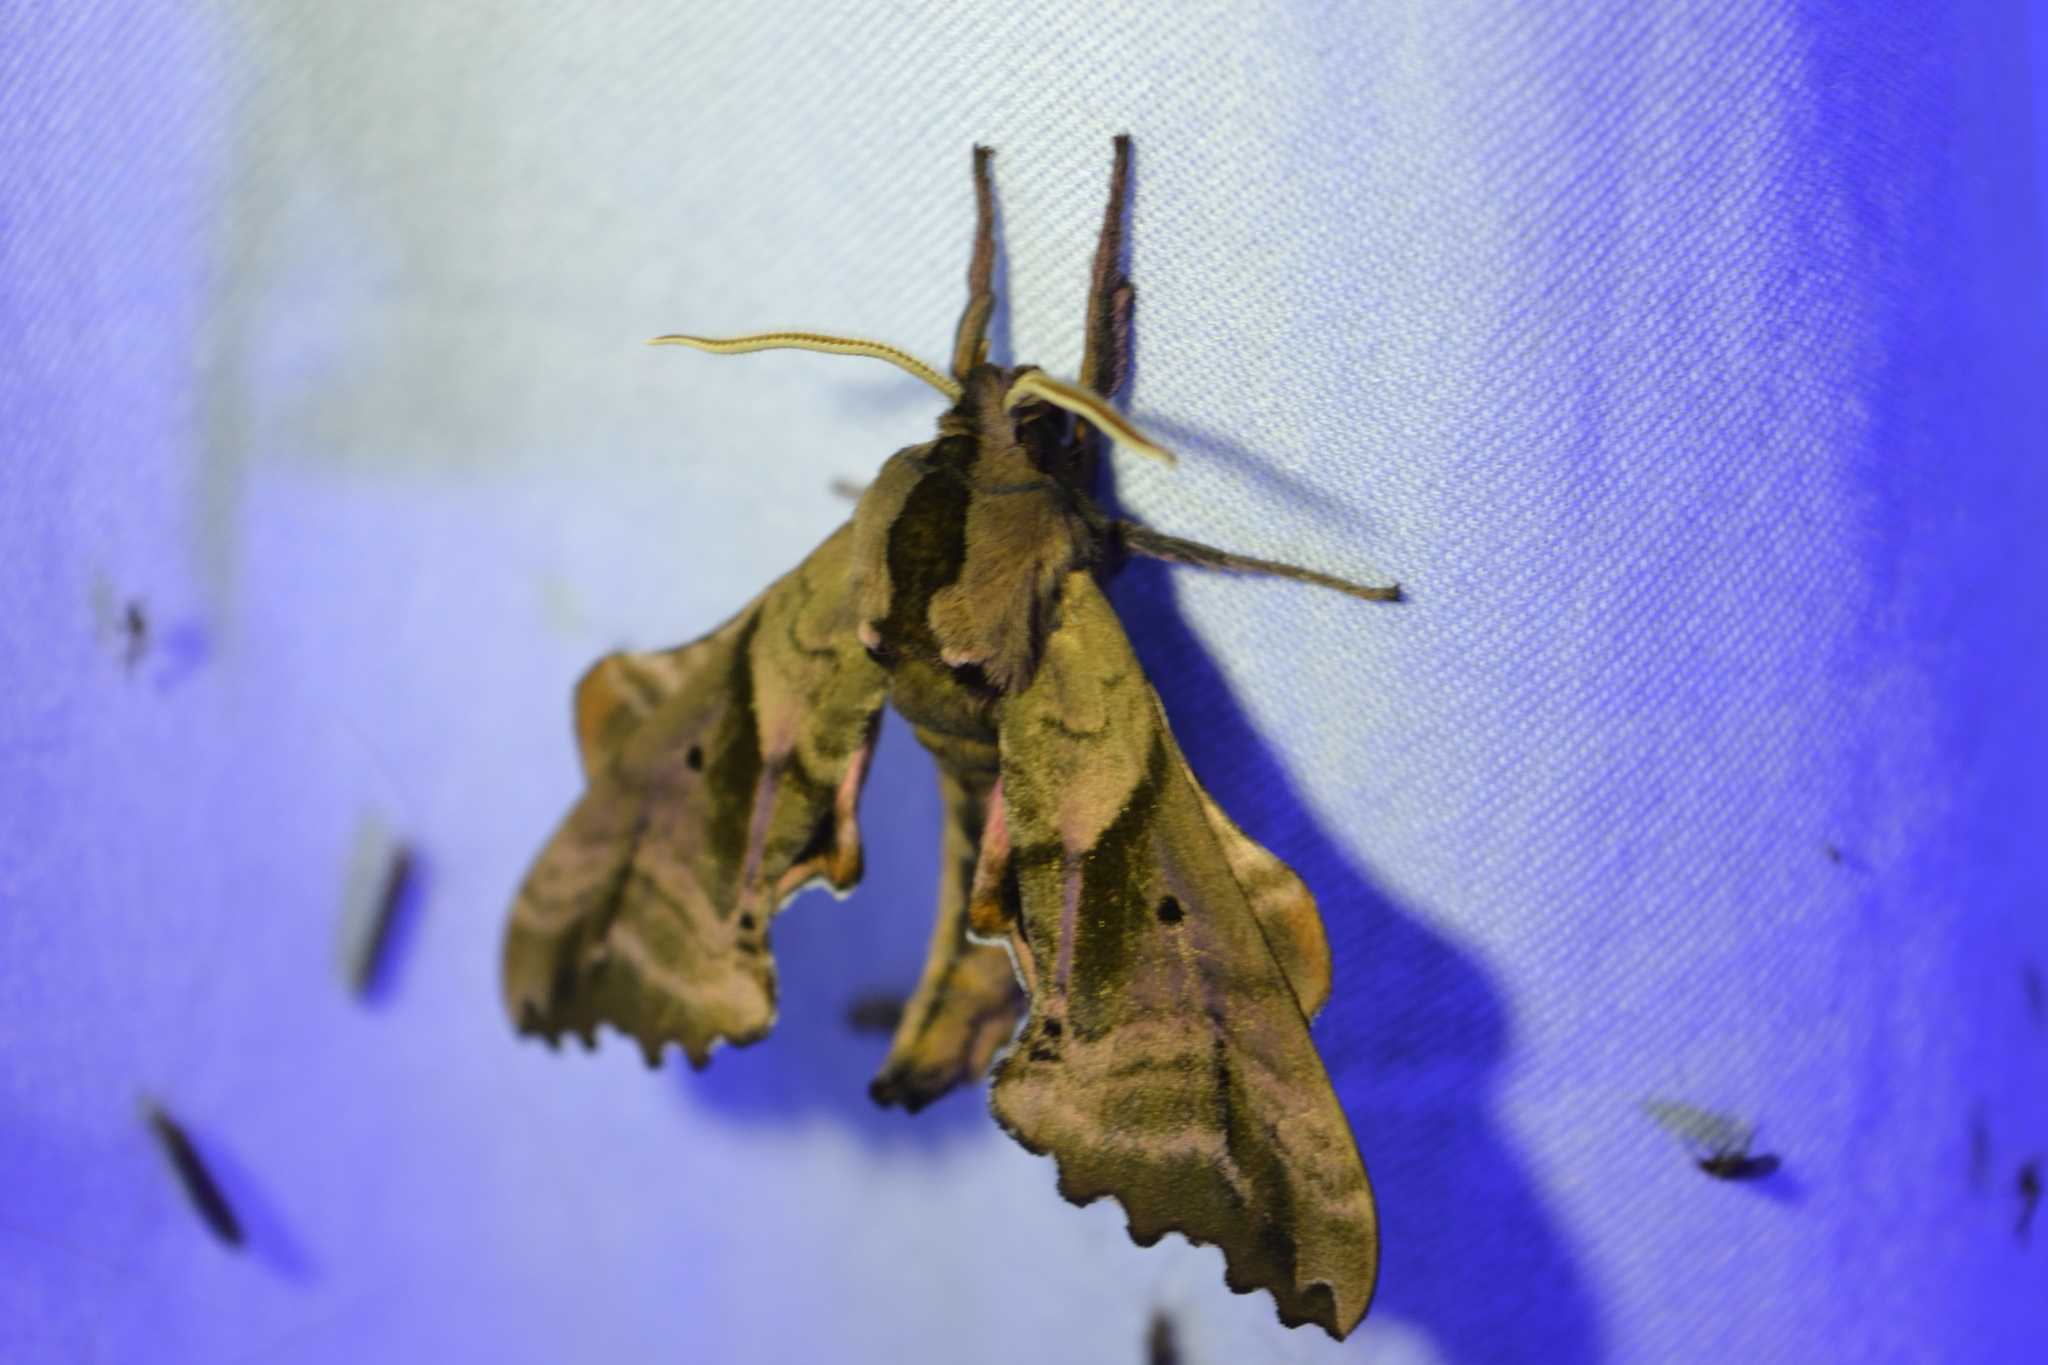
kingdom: Animalia
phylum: Arthropoda
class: Insecta
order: Lepidoptera
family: Sphingidae
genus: Paonias
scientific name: Paonias excaecata
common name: Blind-eyed sphinx
